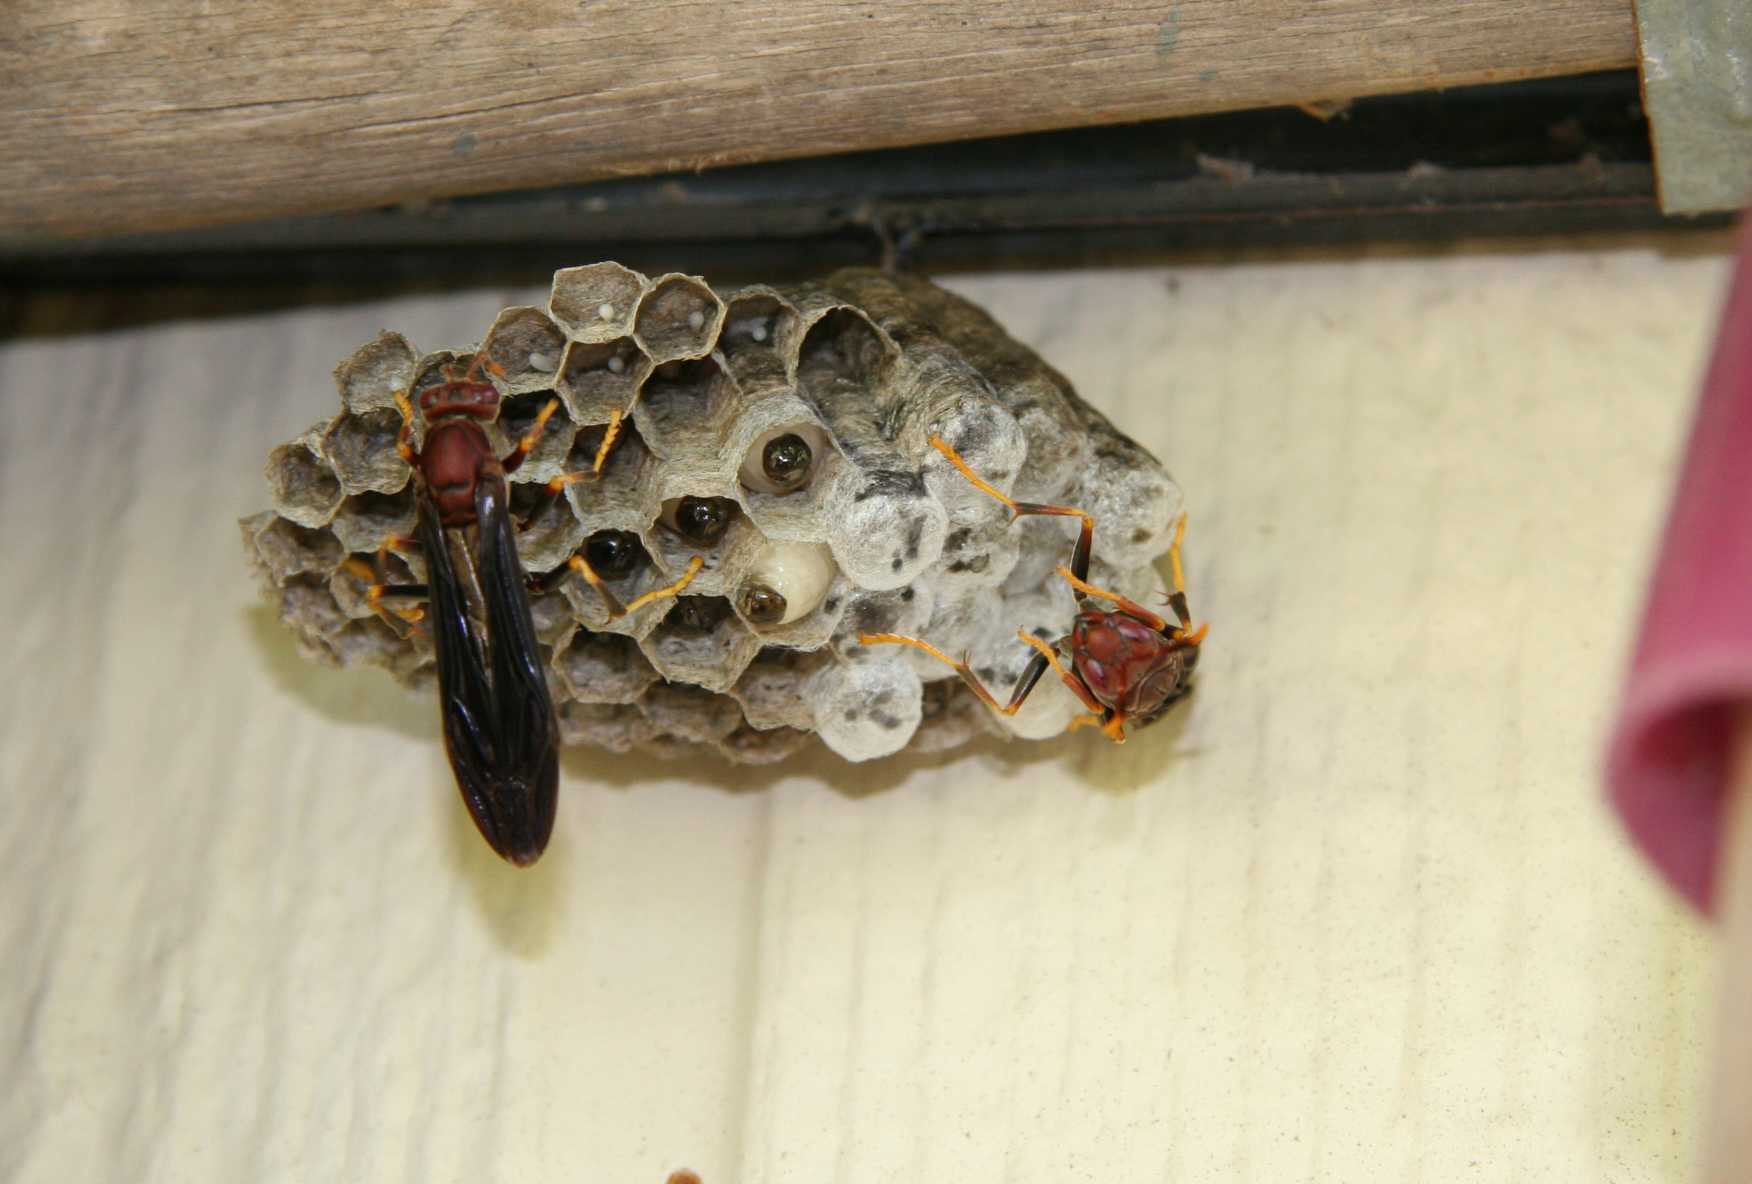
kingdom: Animalia
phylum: Arthropoda
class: Insecta
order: Hymenoptera
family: Eumenidae
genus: Polistes
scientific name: Polistes annularis
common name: Ringed paper wasp
